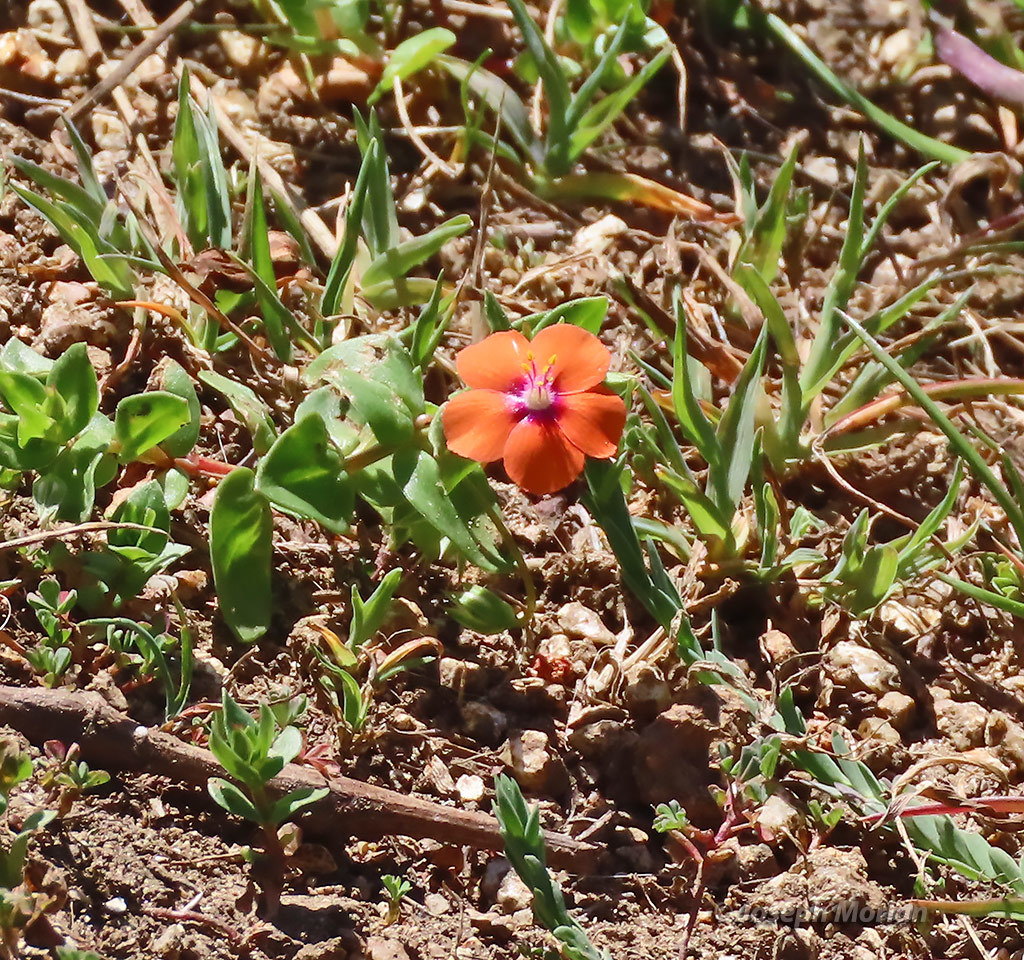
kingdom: Plantae
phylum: Tracheophyta
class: Magnoliopsida
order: Ericales
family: Primulaceae
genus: Lysimachia
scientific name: Lysimachia arvensis
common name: Scarlet pimpernel
